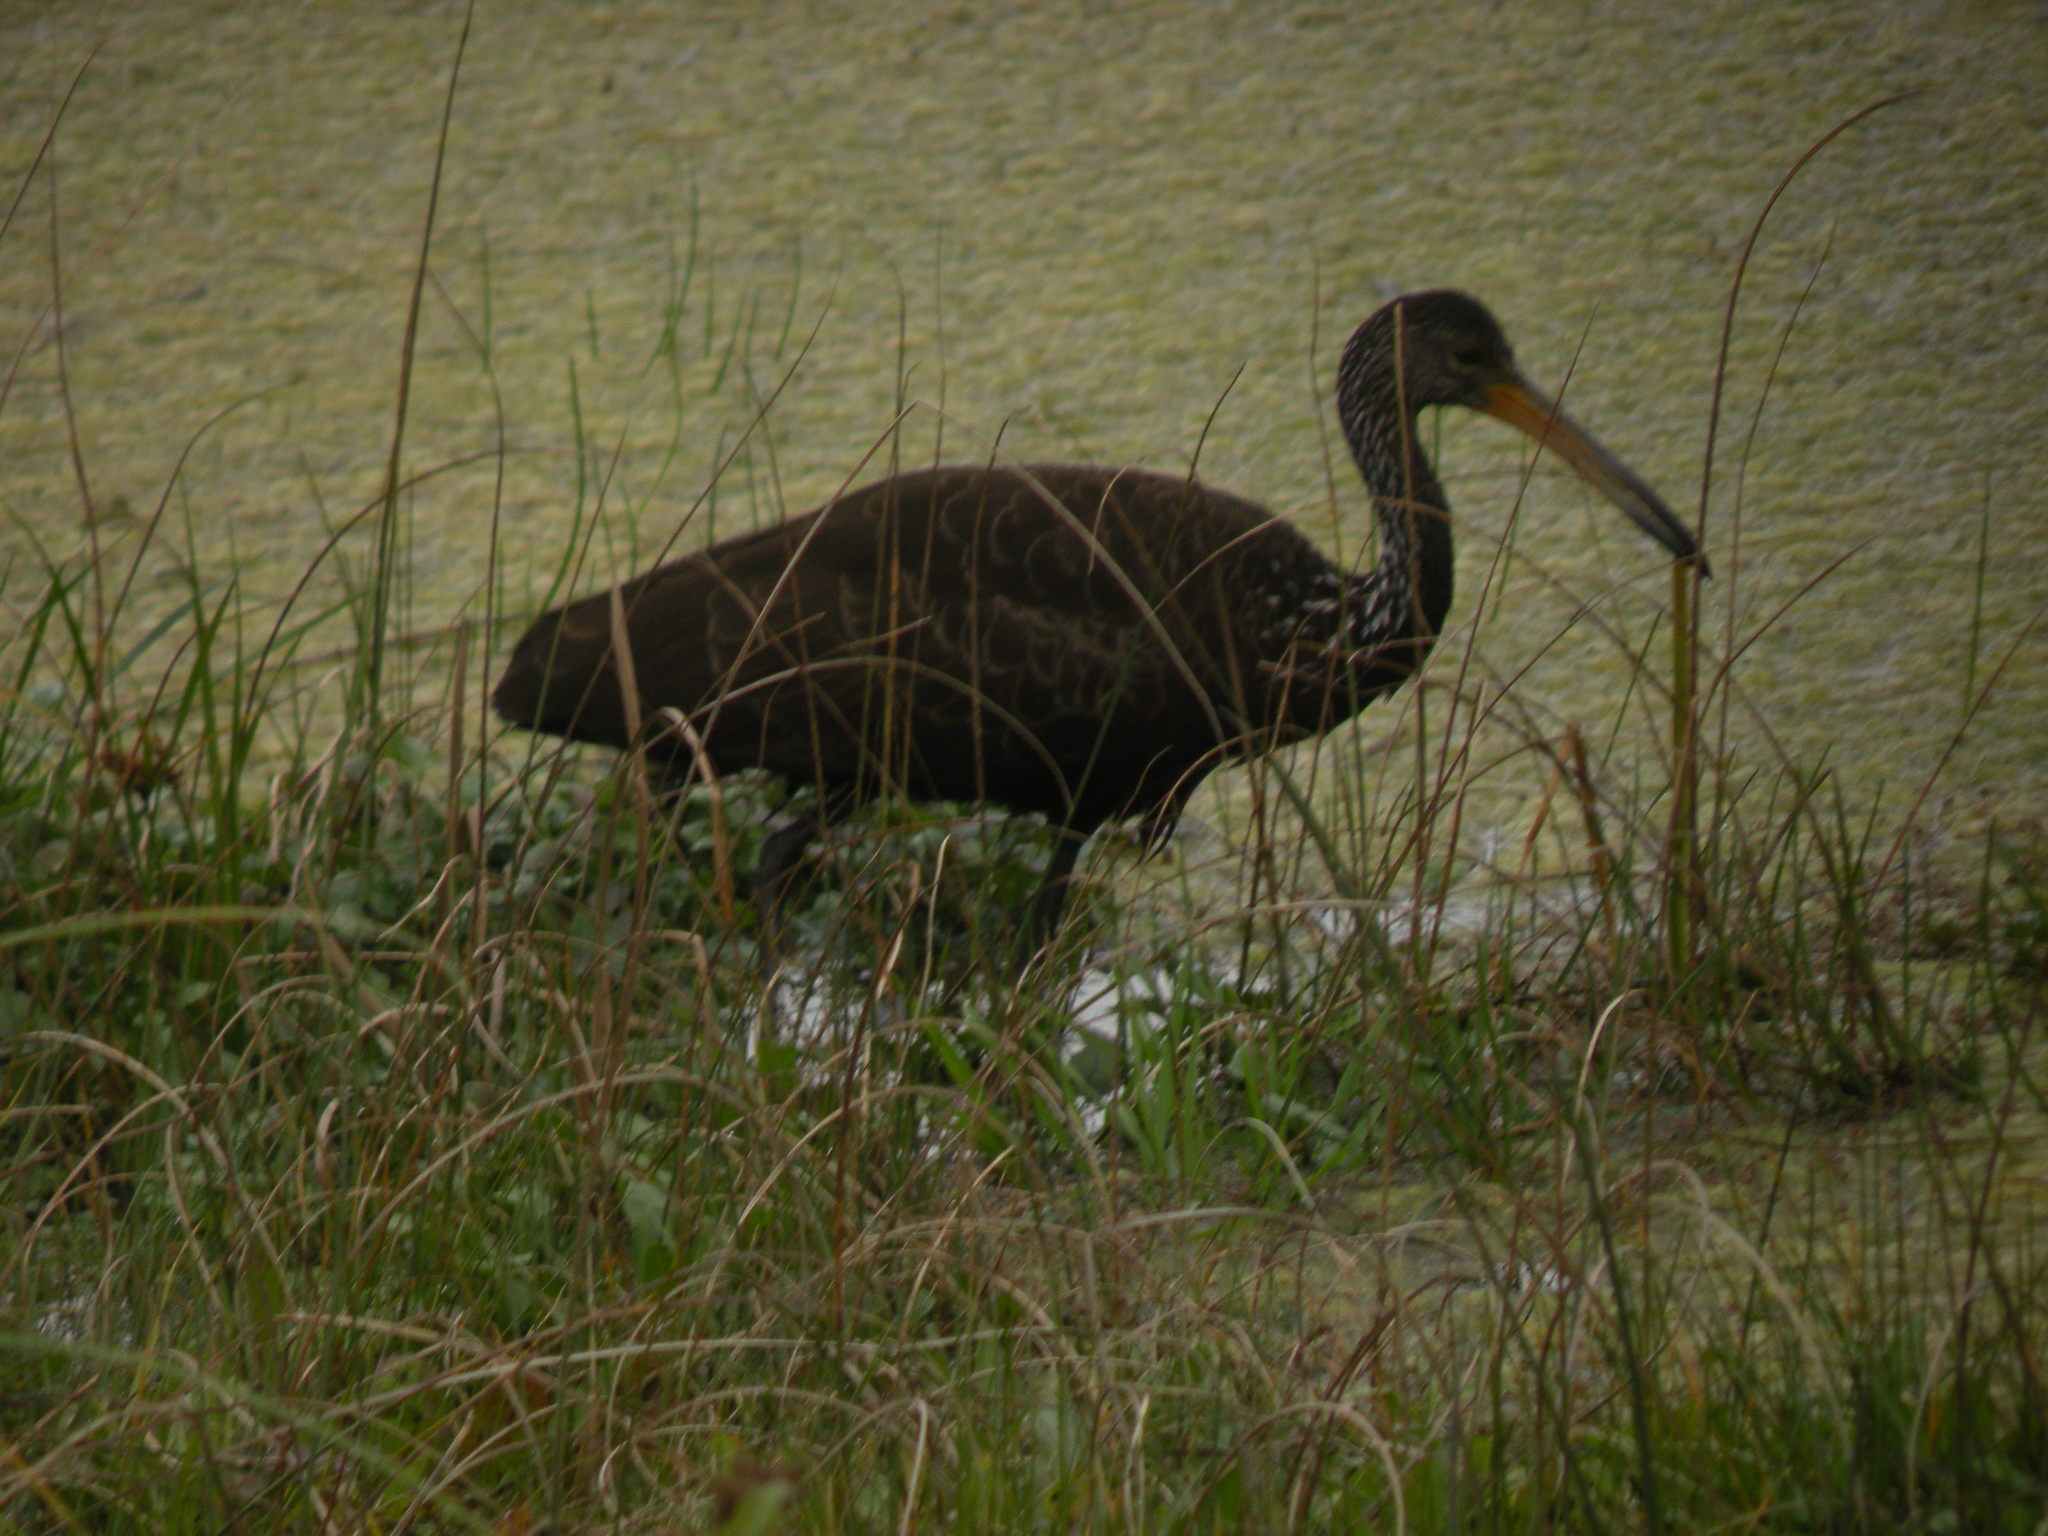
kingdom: Animalia
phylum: Chordata
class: Aves
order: Gruiformes
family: Aramidae
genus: Aramus
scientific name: Aramus guarauna
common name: Limpkin
